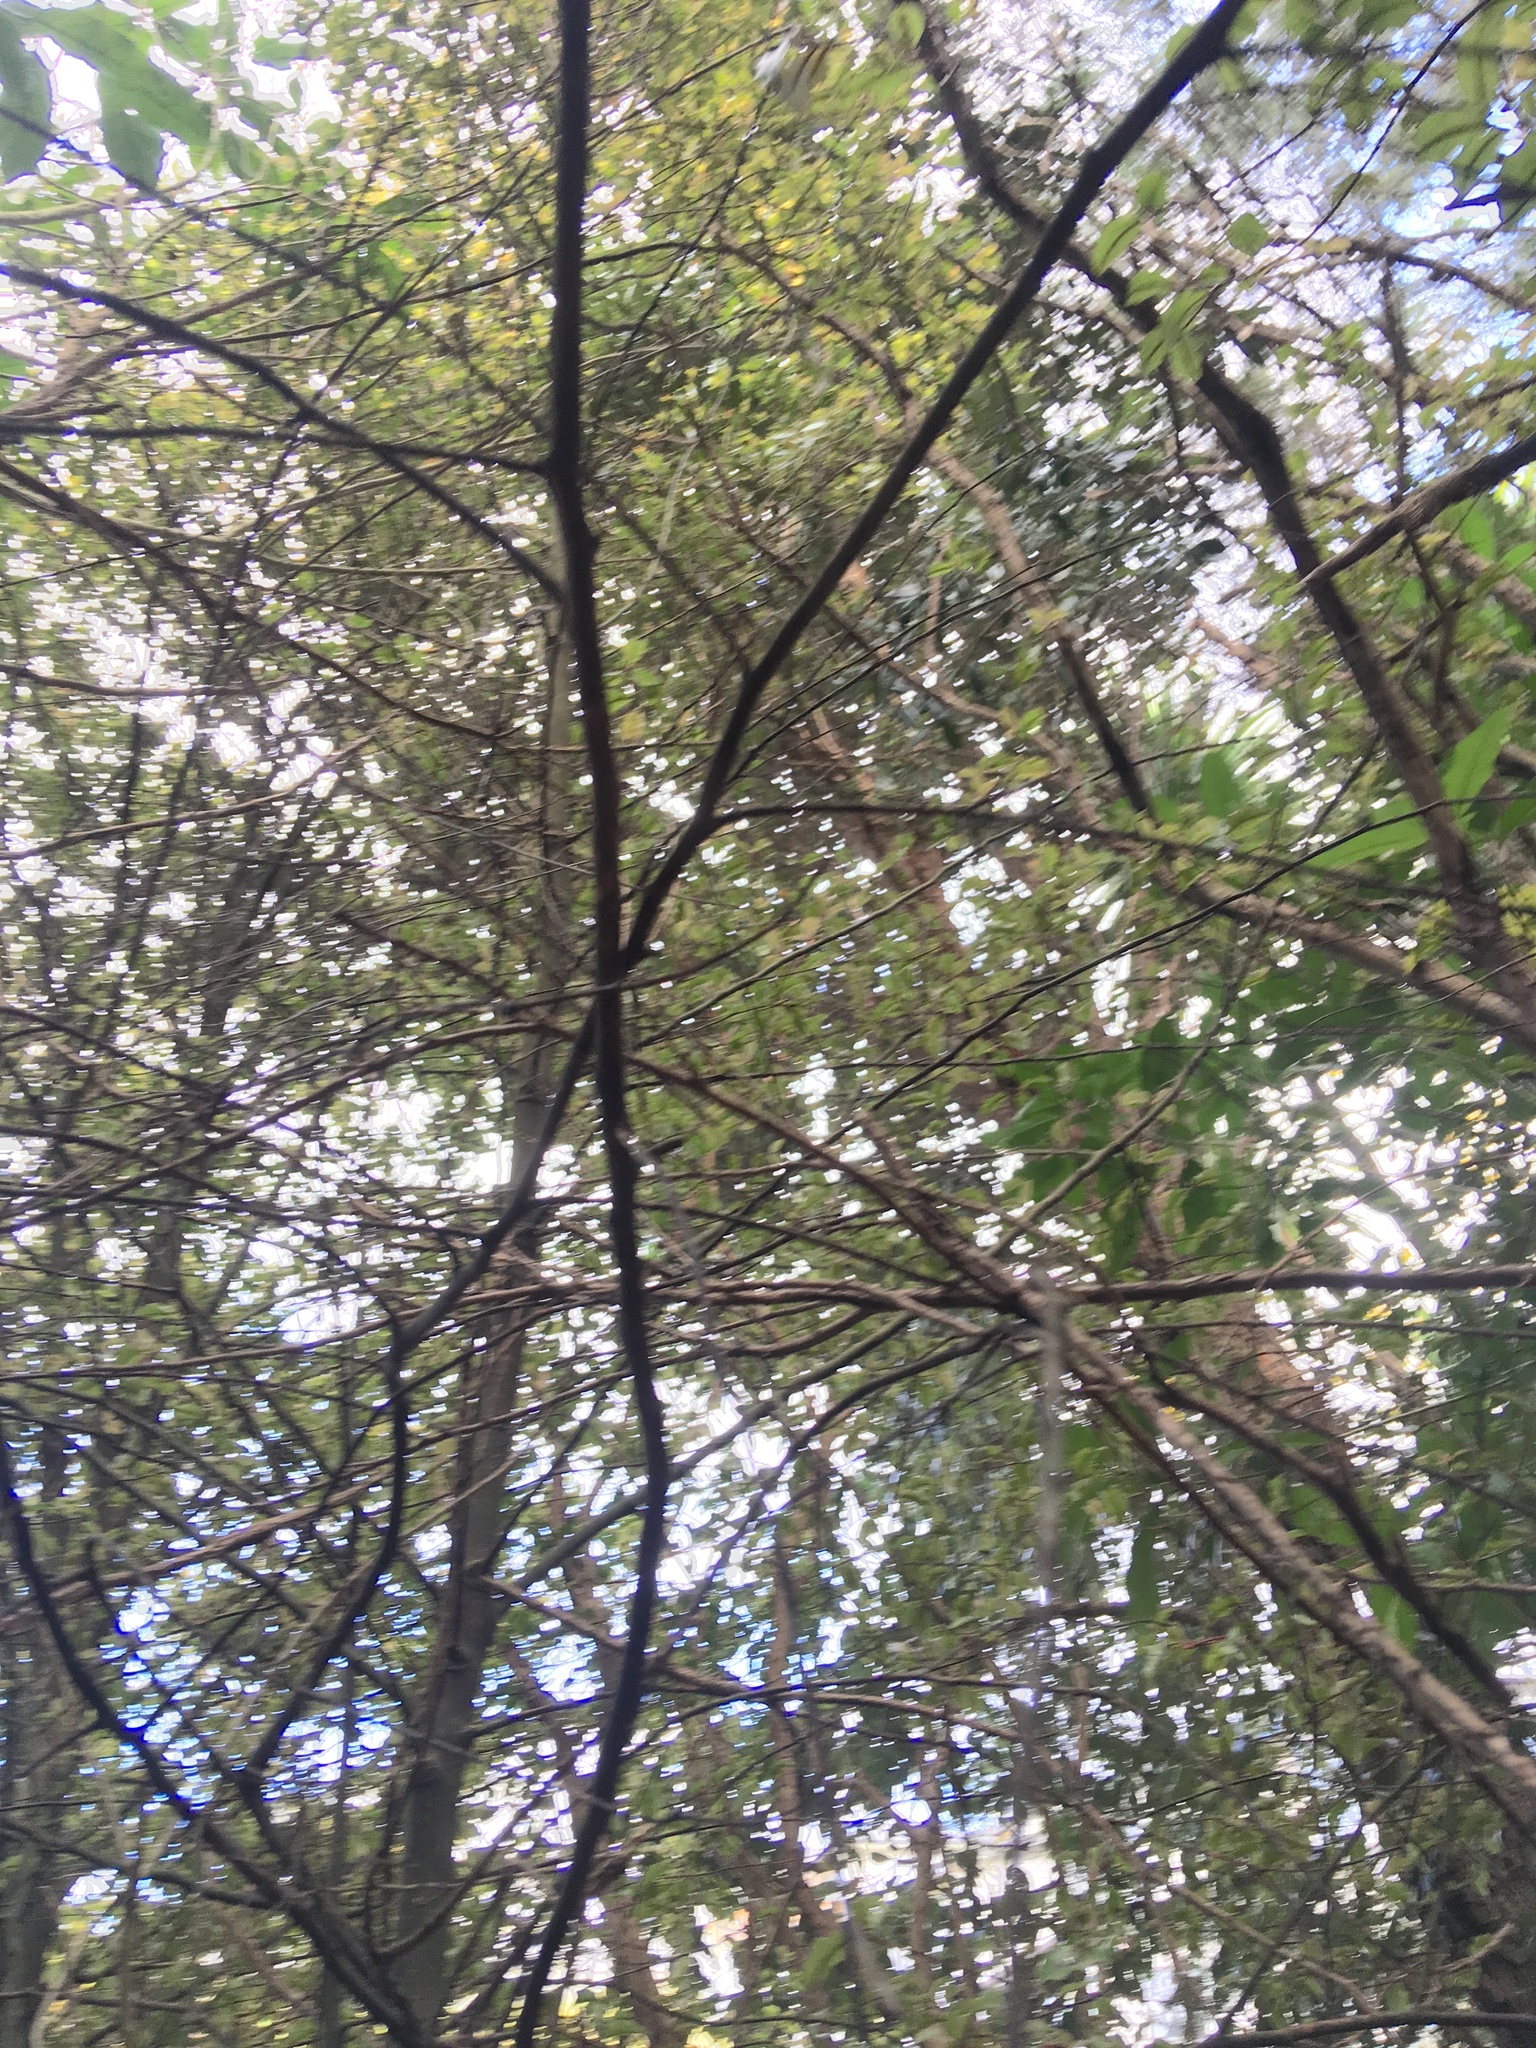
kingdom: Plantae
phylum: Tracheophyta
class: Magnoliopsida
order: Ericales
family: Primulaceae
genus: Myrsine
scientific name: Myrsine australis
